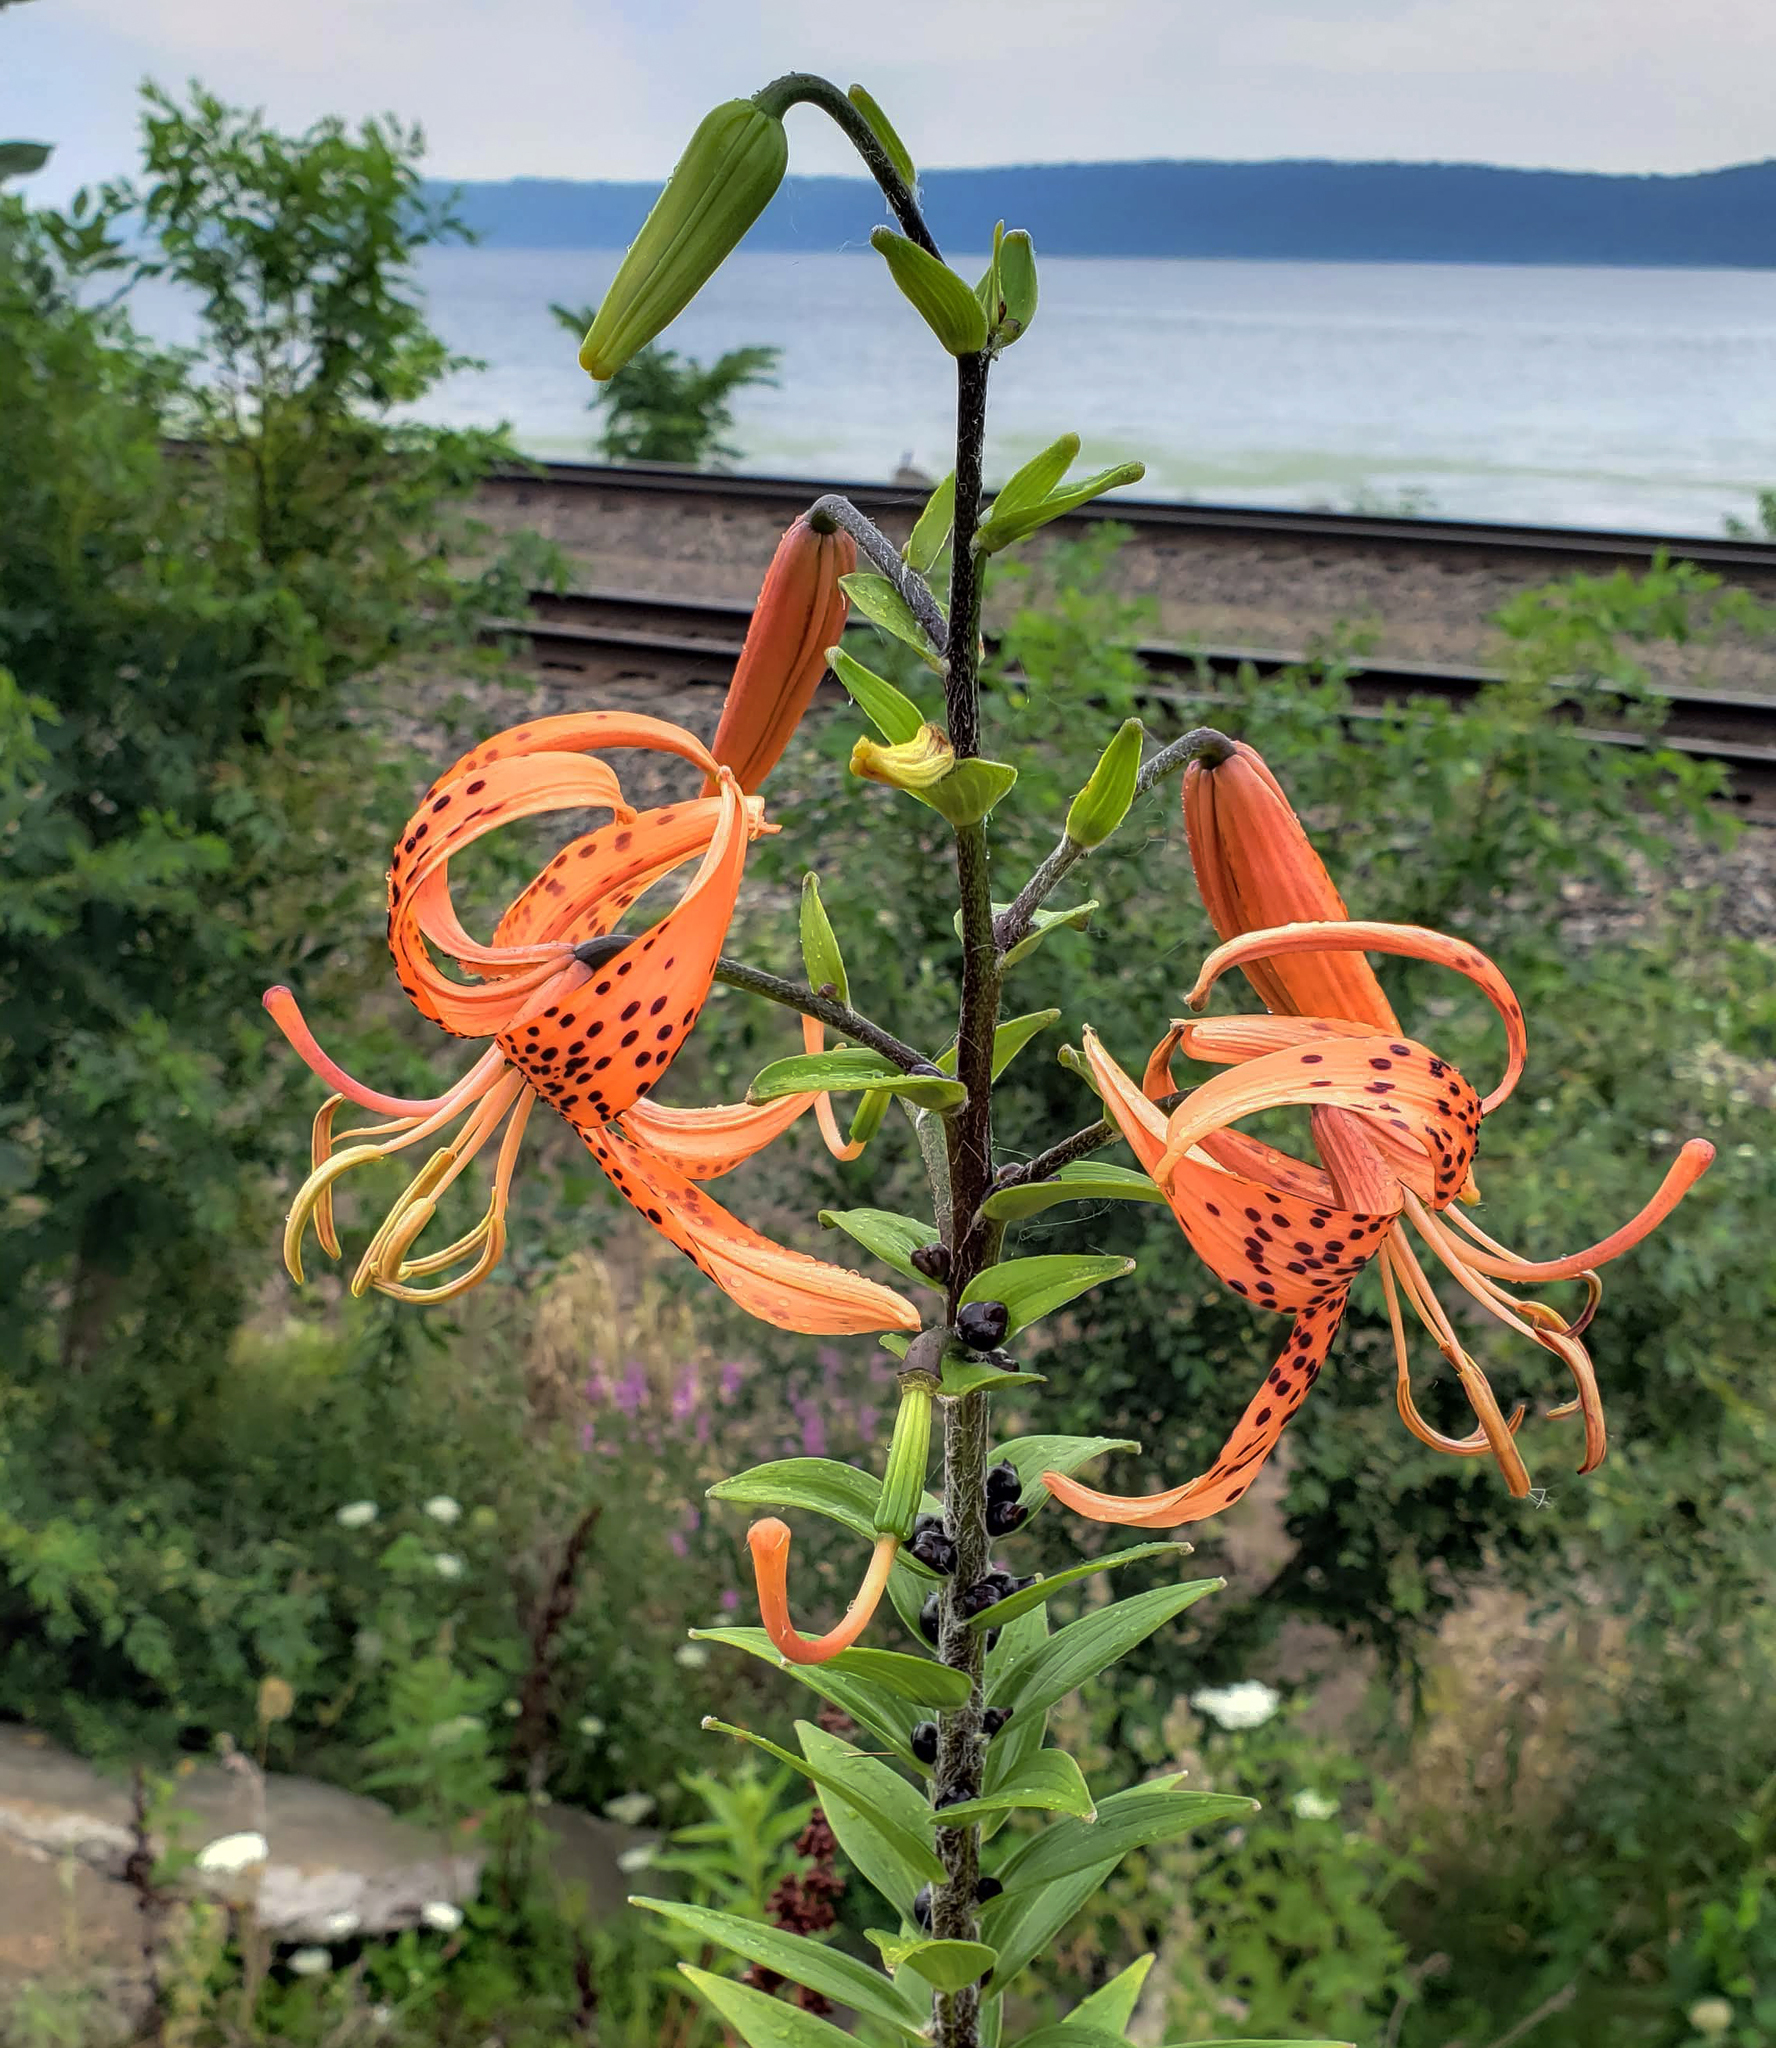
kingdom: Plantae
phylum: Tracheophyta
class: Liliopsida
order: Liliales
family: Liliaceae
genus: Lilium
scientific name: Lilium lancifolium
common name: Tiger lily
